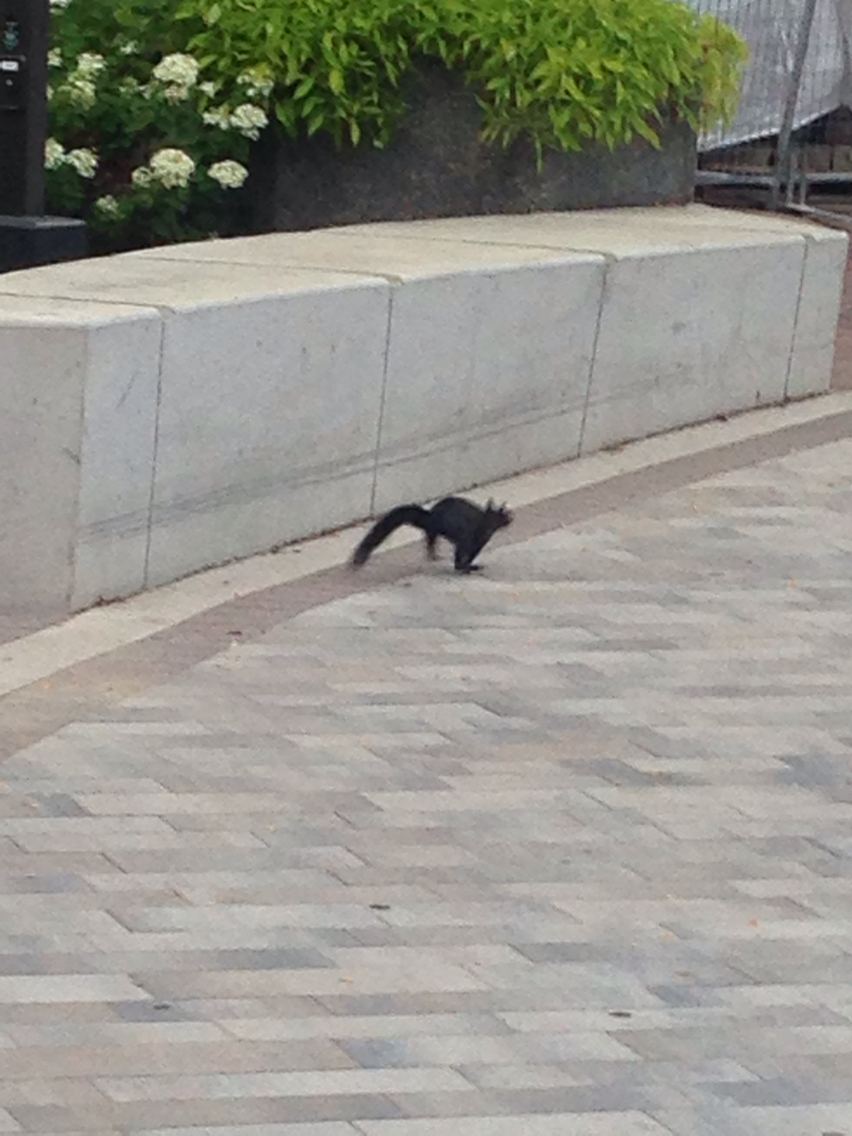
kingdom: Animalia
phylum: Chordata
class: Mammalia
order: Rodentia
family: Sciuridae
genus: Sciurus
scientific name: Sciurus carolinensis
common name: Eastern gray squirrel
